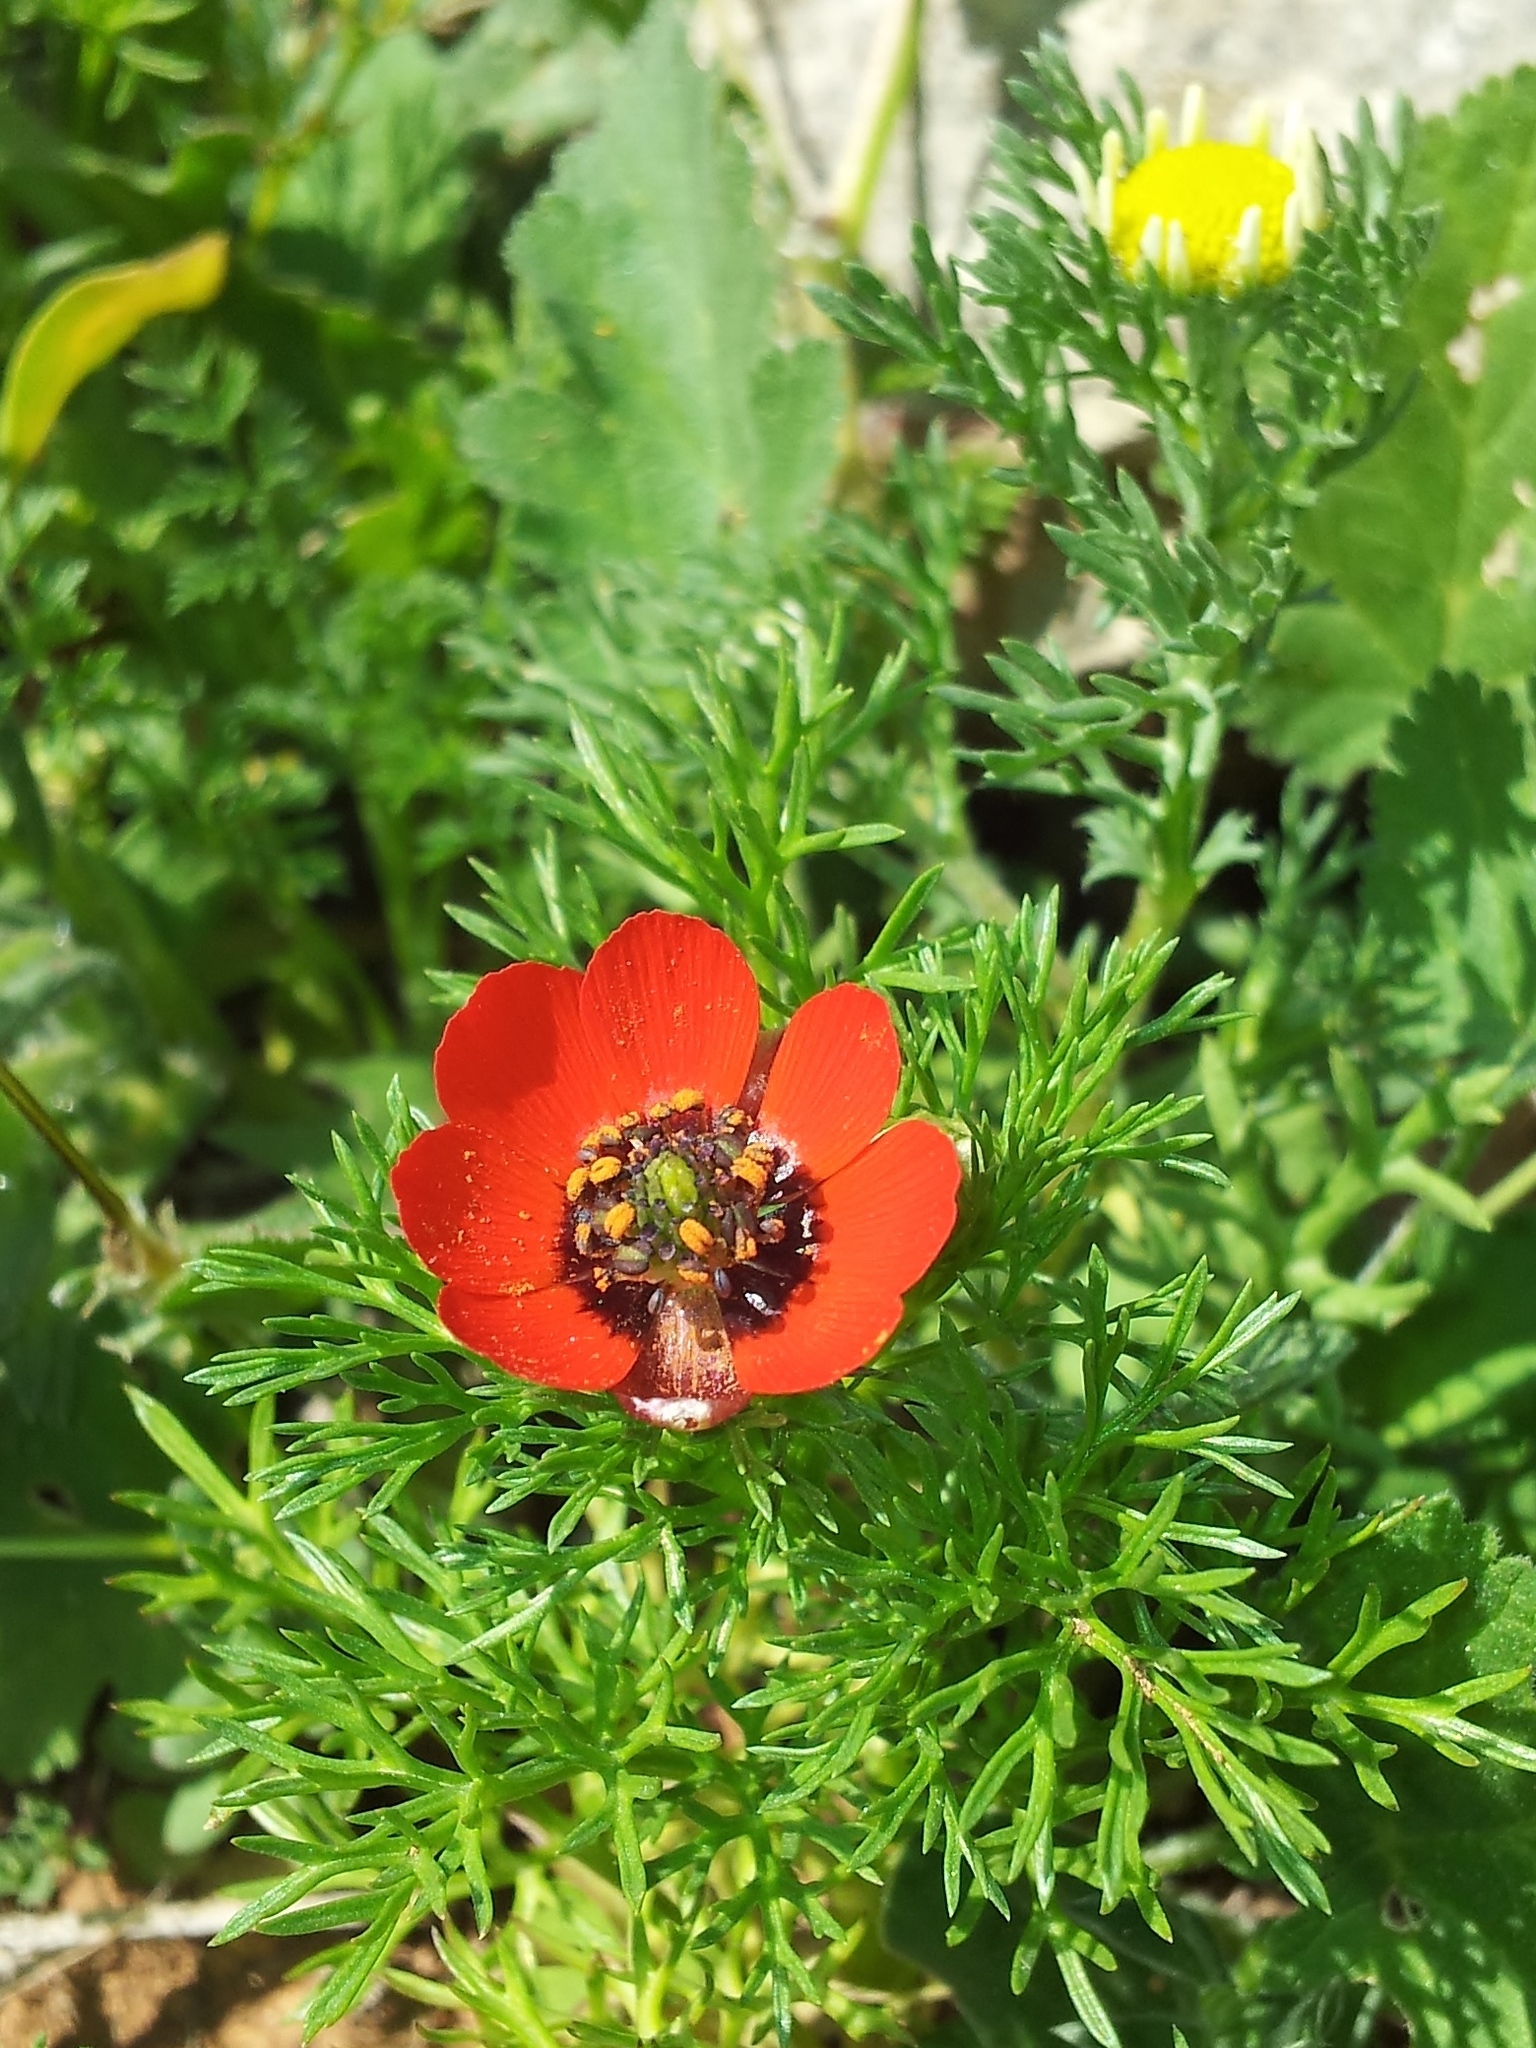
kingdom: Plantae
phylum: Tracheophyta
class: Magnoliopsida
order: Ranunculales
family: Ranunculaceae
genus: Adonis
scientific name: Adonis microcarpa
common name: Pheasant's-eye
